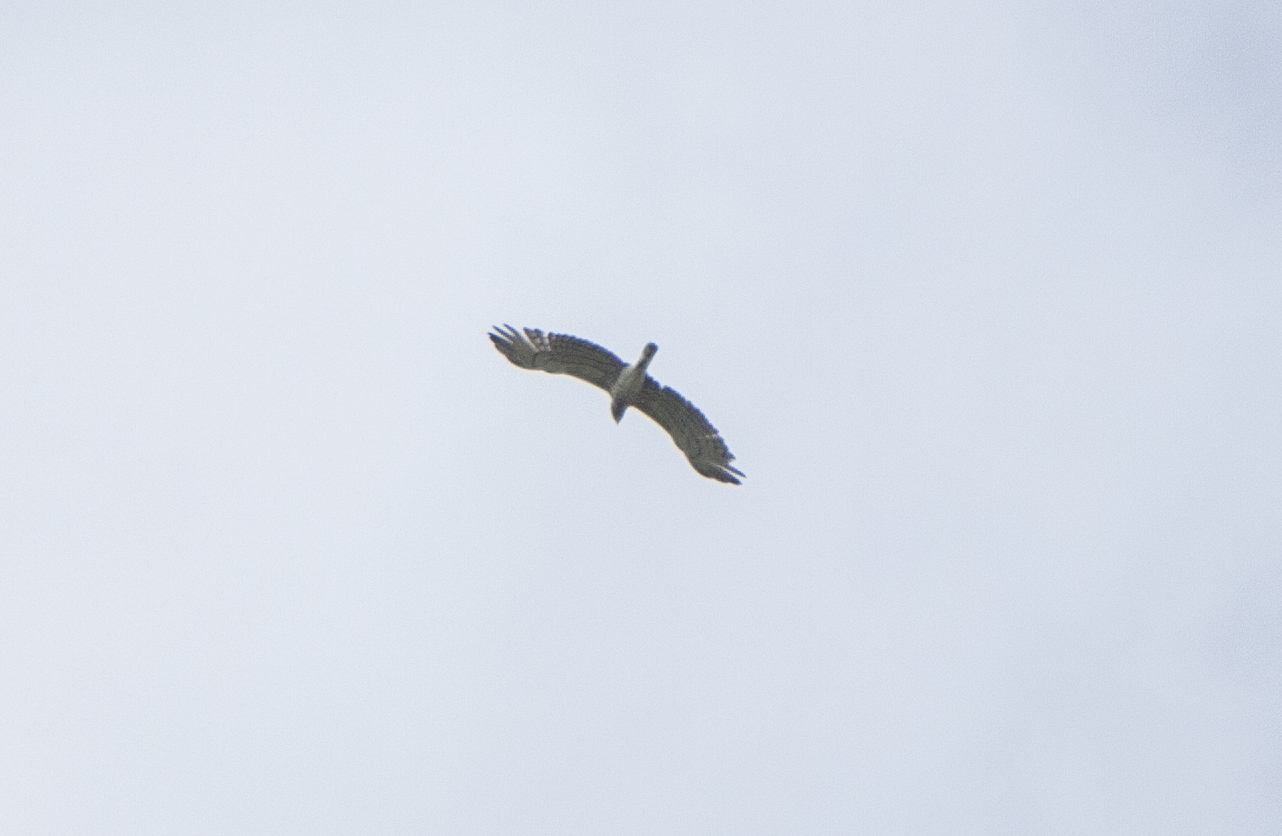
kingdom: Animalia
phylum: Chordata
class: Aves
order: Accipitriformes
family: Accipitridae
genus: Circaetus
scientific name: Circaetus gallicus
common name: Short-toed snake eagle
